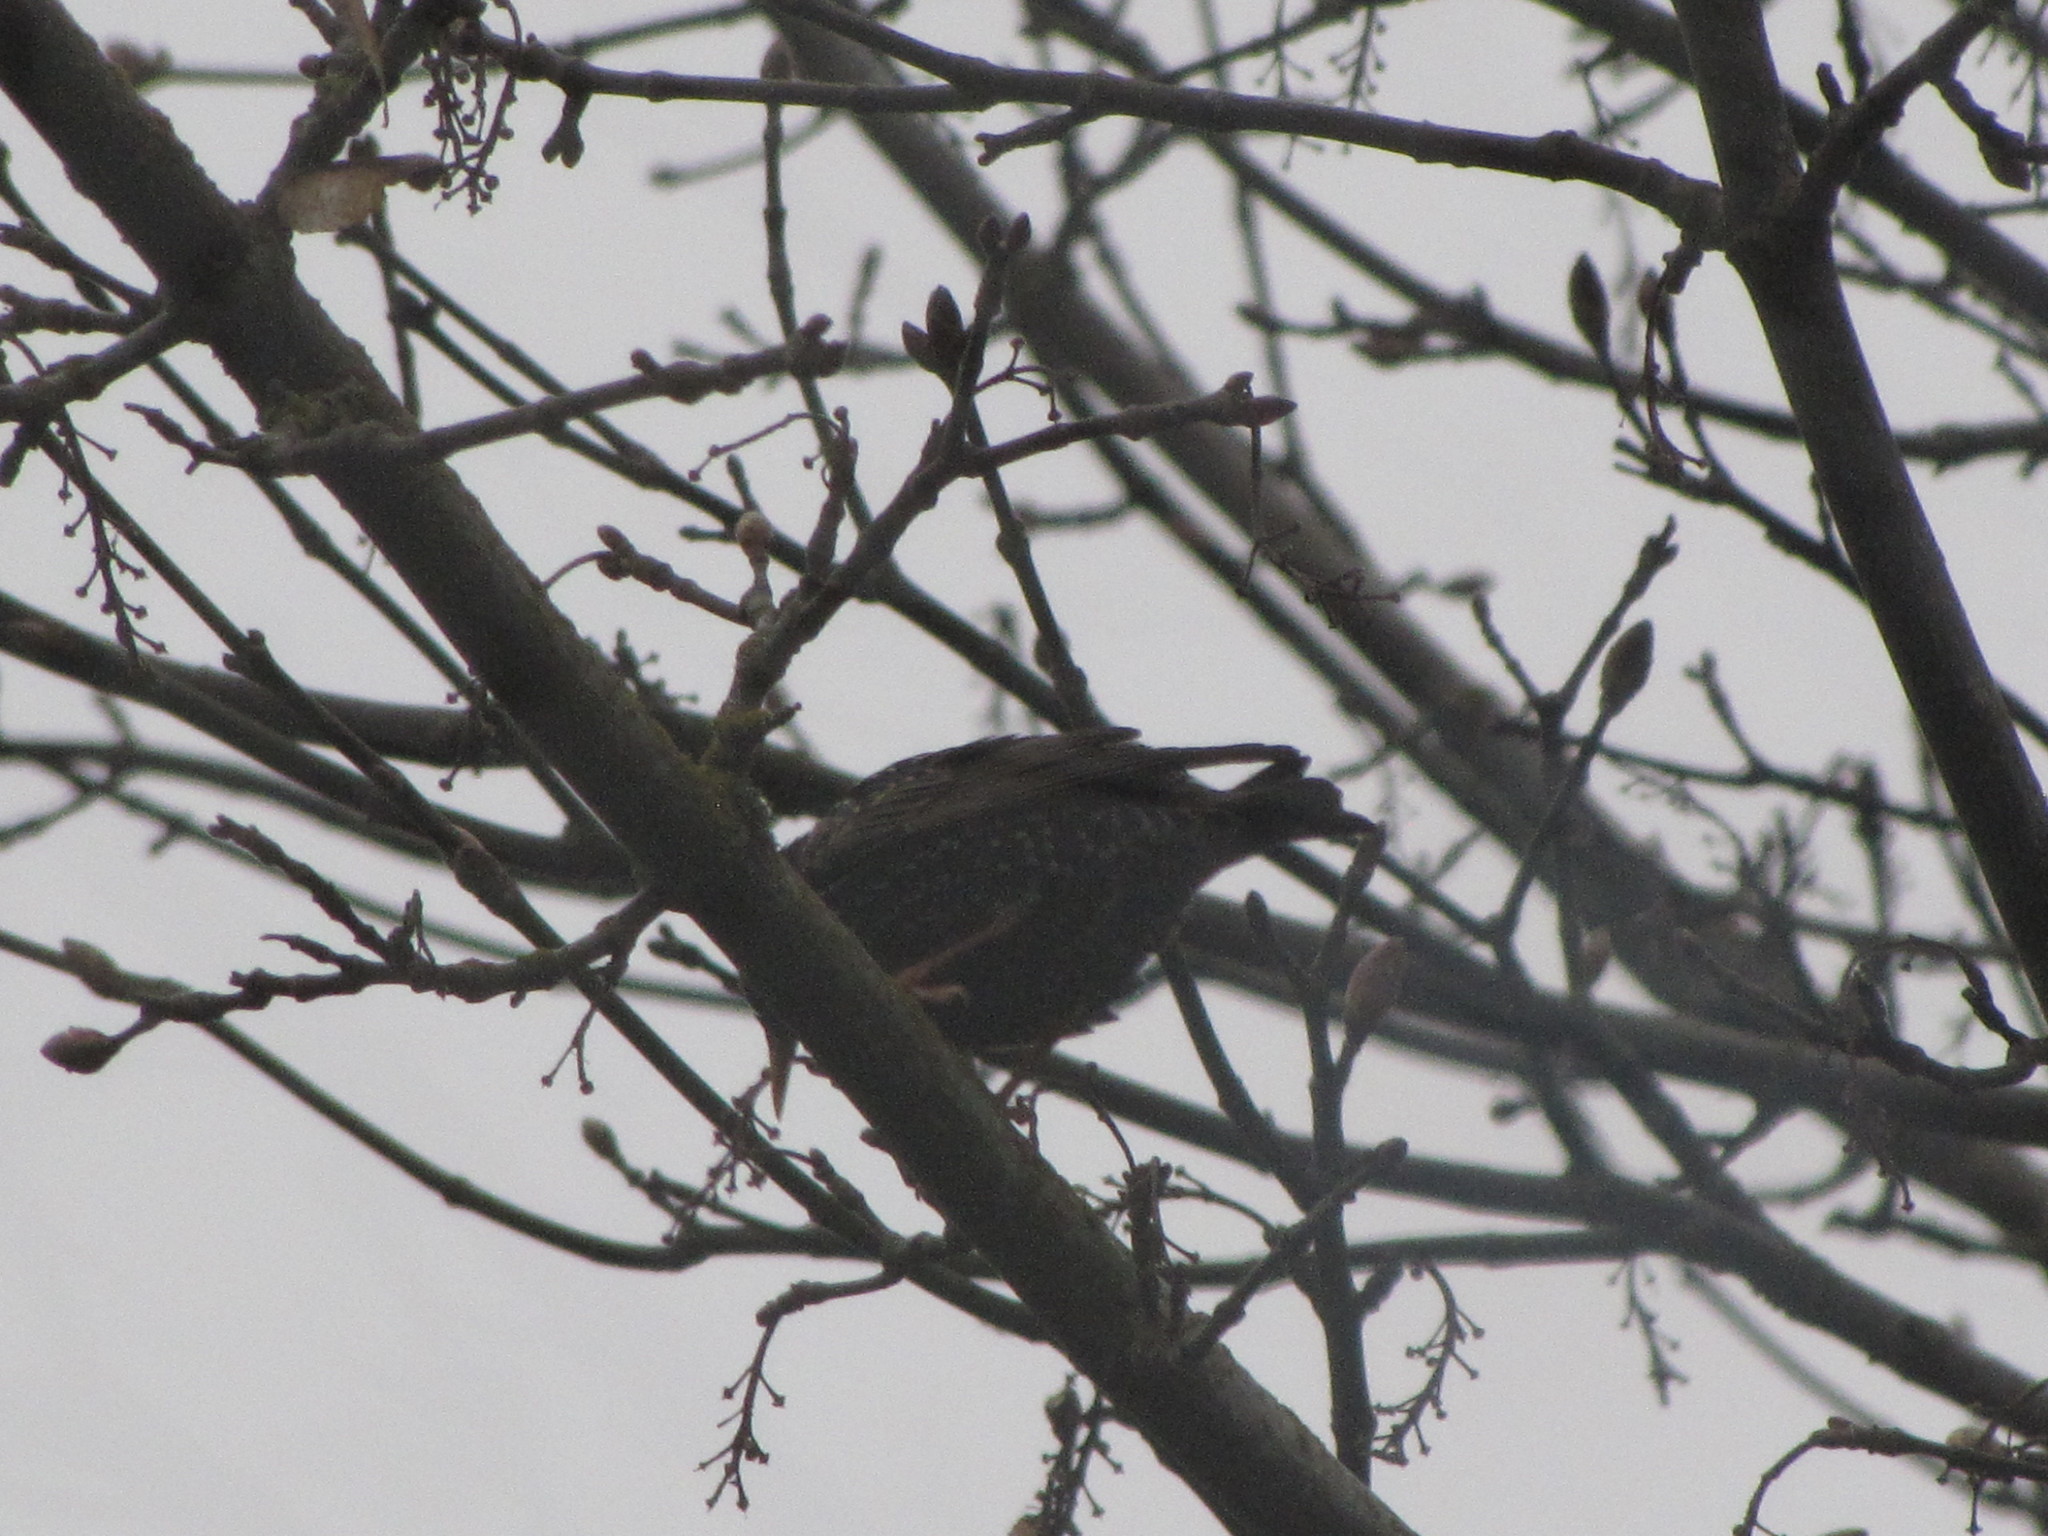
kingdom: Animalia
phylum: Chordata
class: Aves
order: Passeriformes
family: Sturnidae
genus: Sturnus
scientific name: Sturnus vulgaris
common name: Common starling
